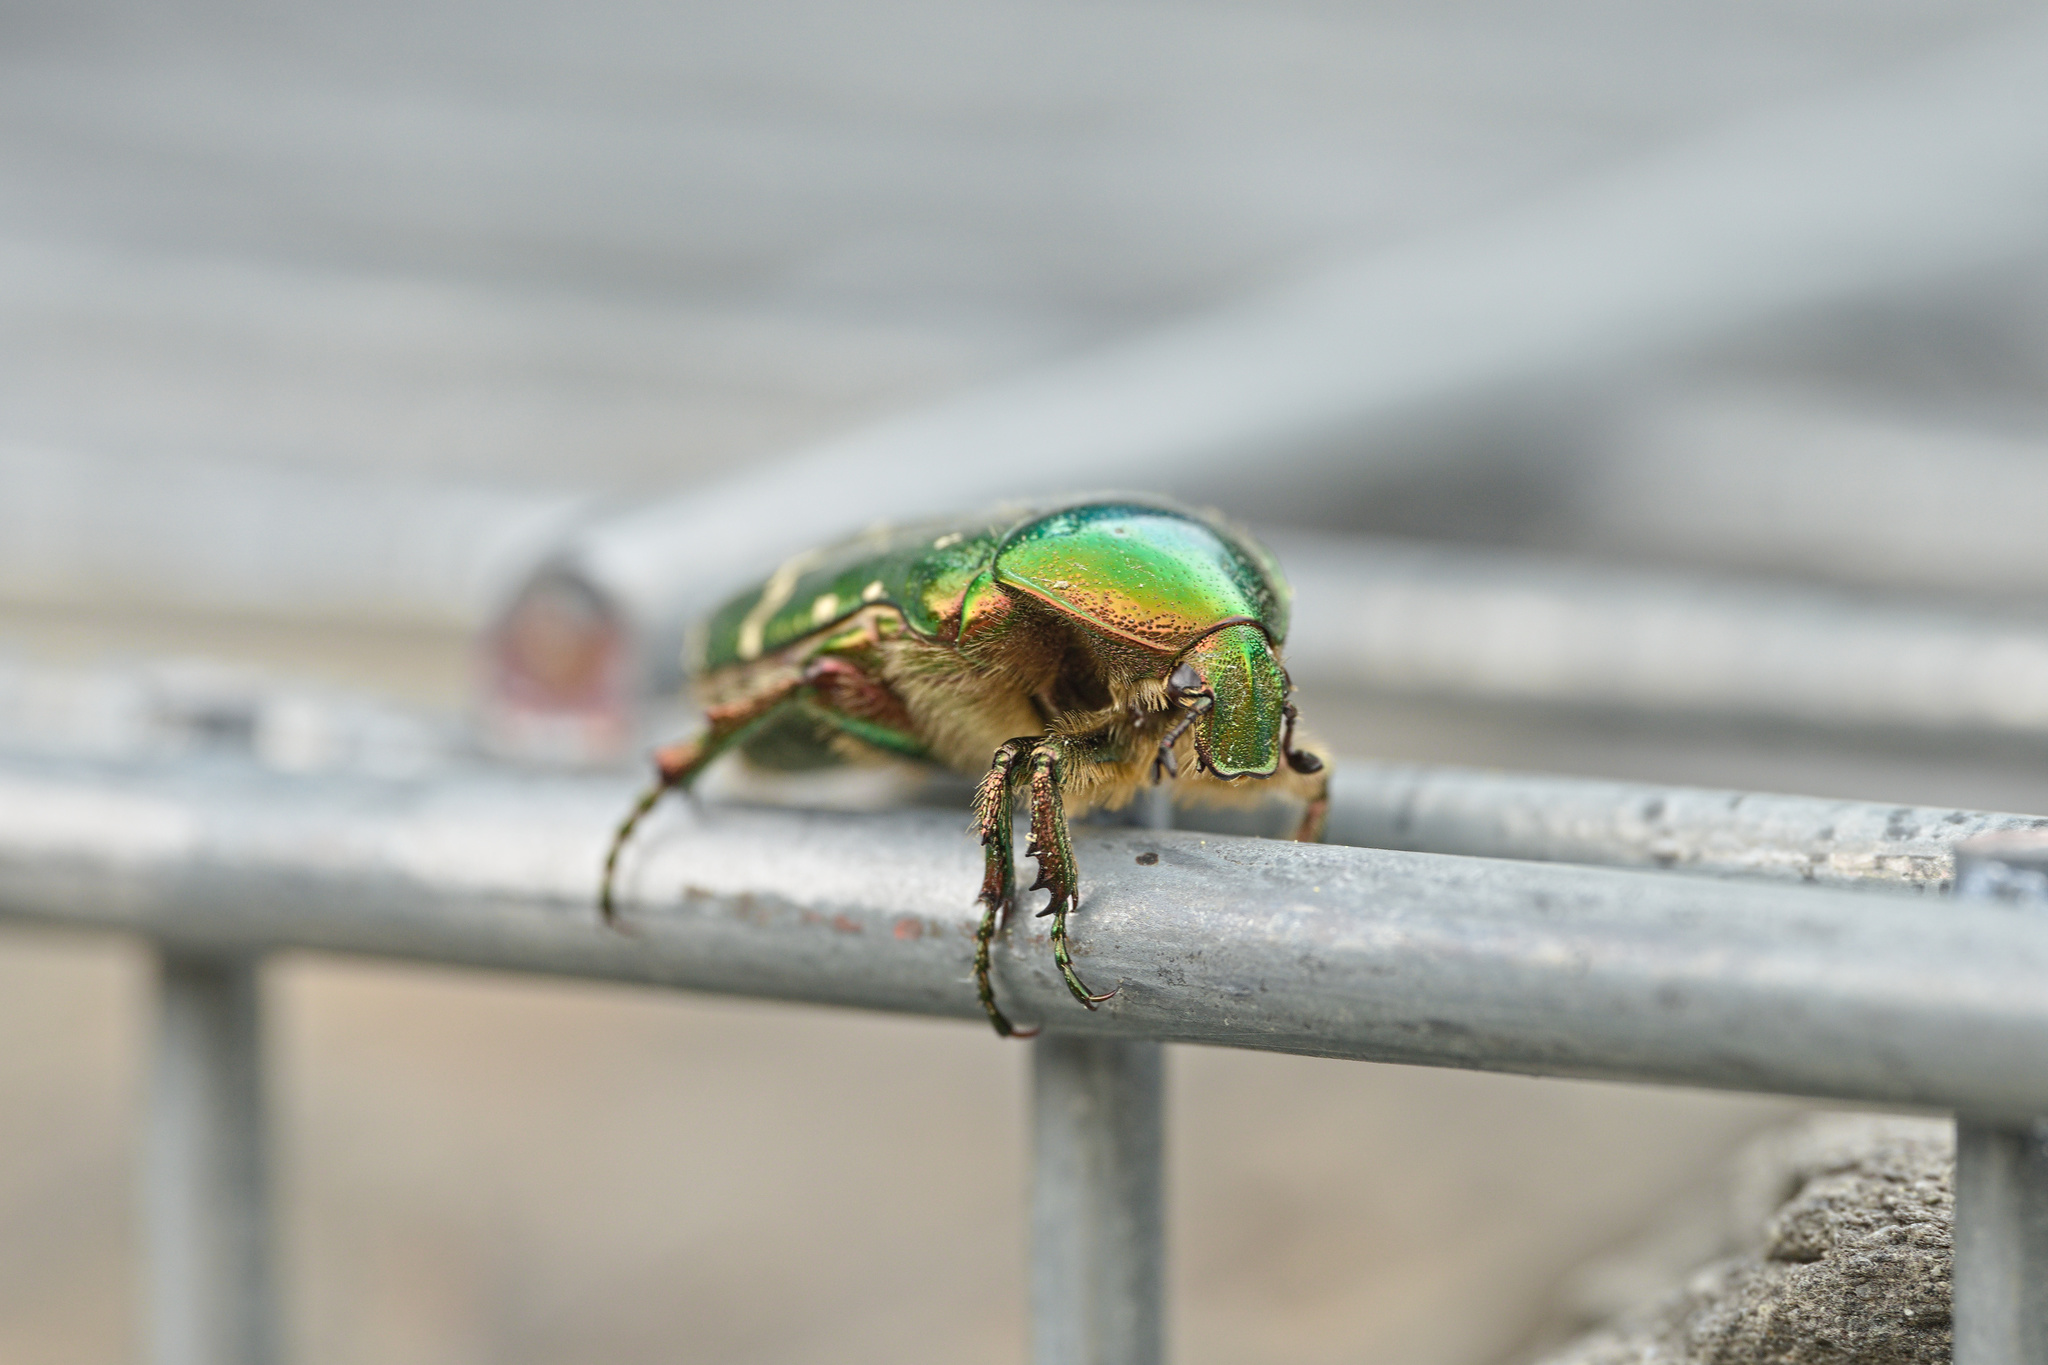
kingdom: Animalia
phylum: Arthropoda
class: Insecta
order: Coleoptera
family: Scarabaeidae
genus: Cetonia
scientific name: Cetonia aurata
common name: Rose chafer
